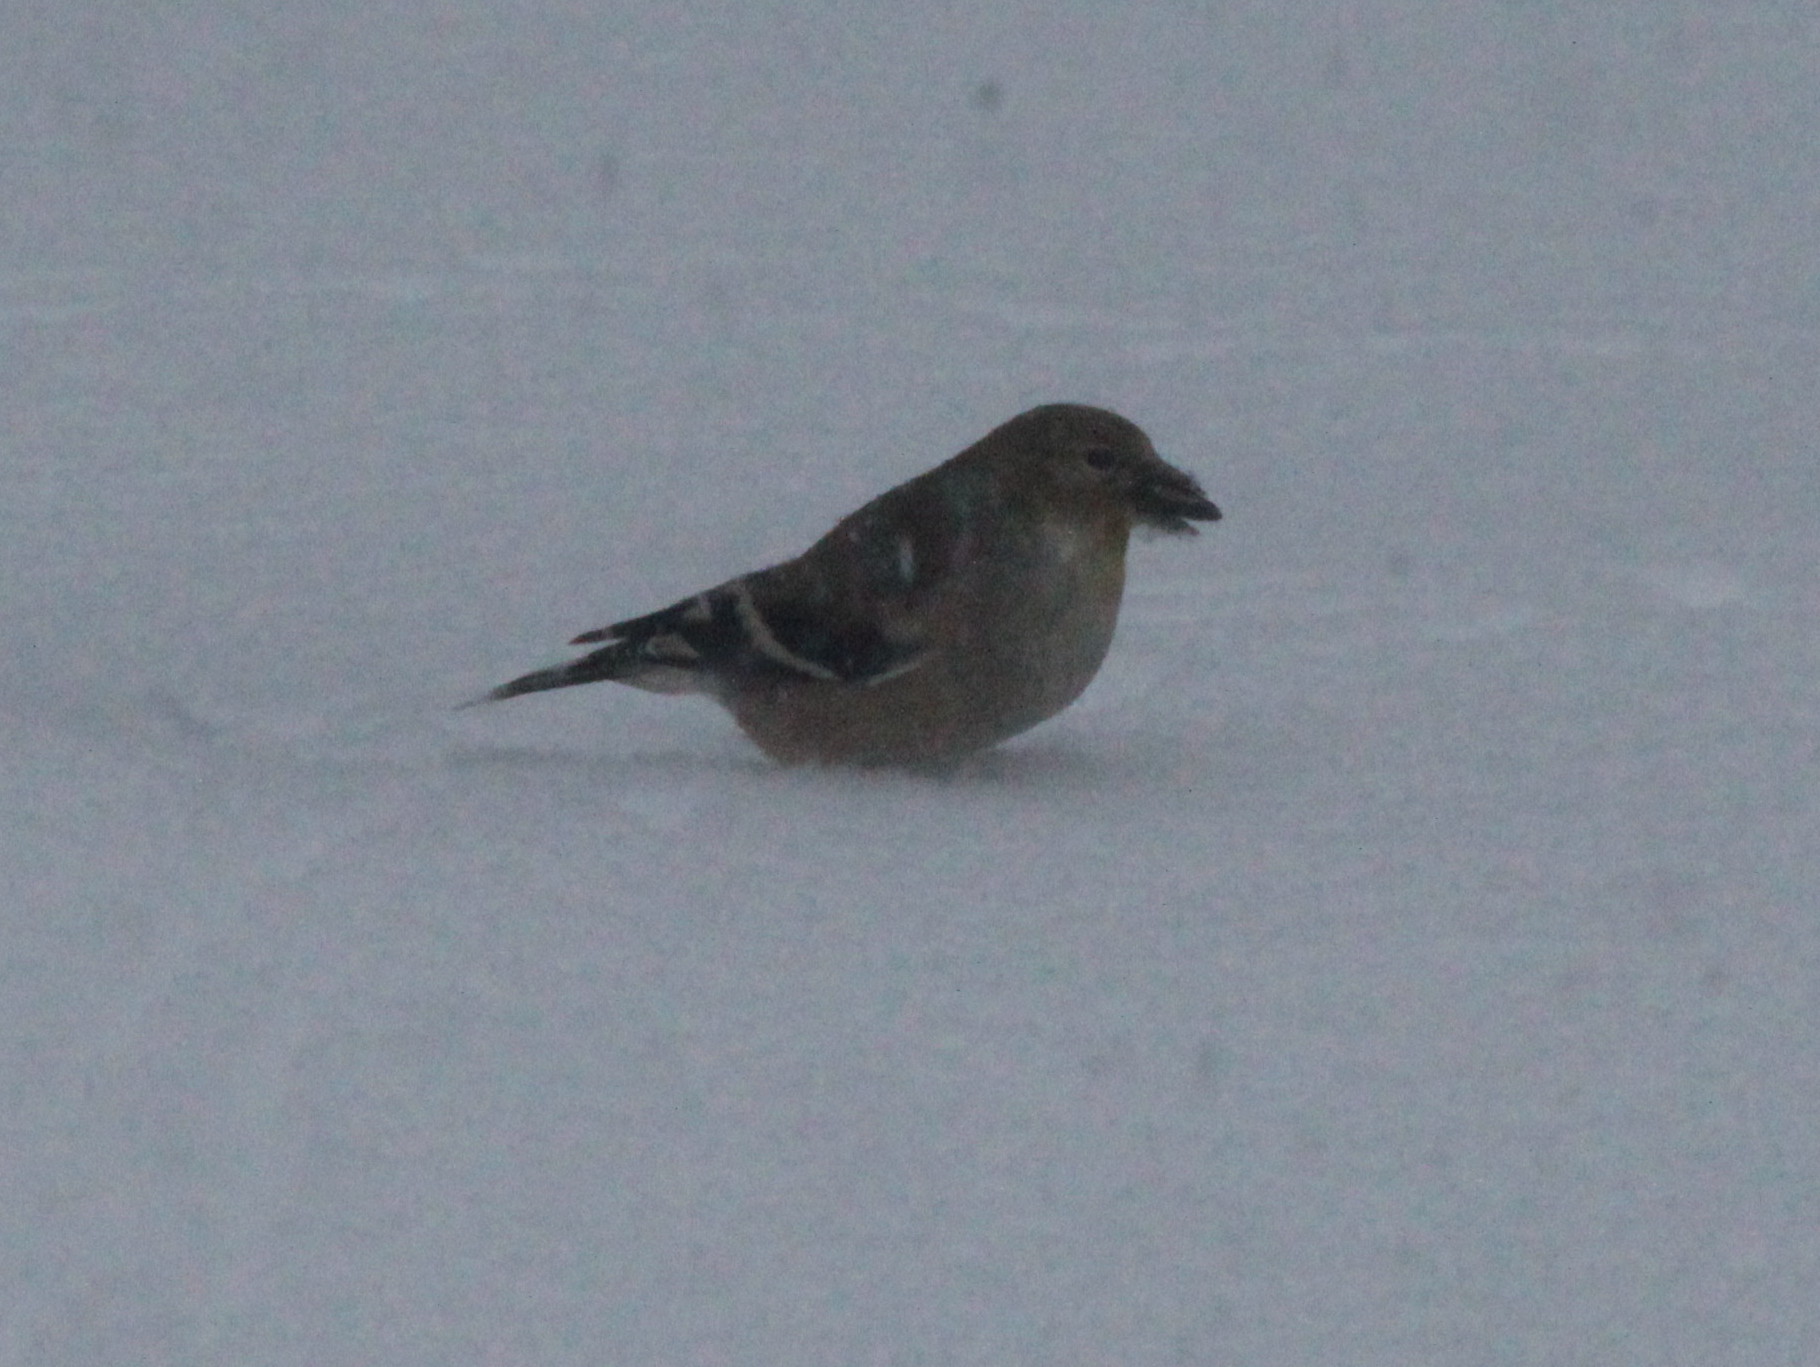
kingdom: Animalia
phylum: Chordata
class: Aves
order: Passeriformes
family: Fringillidae
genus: Spinus
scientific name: Spinus tristis
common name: American goldfinch
